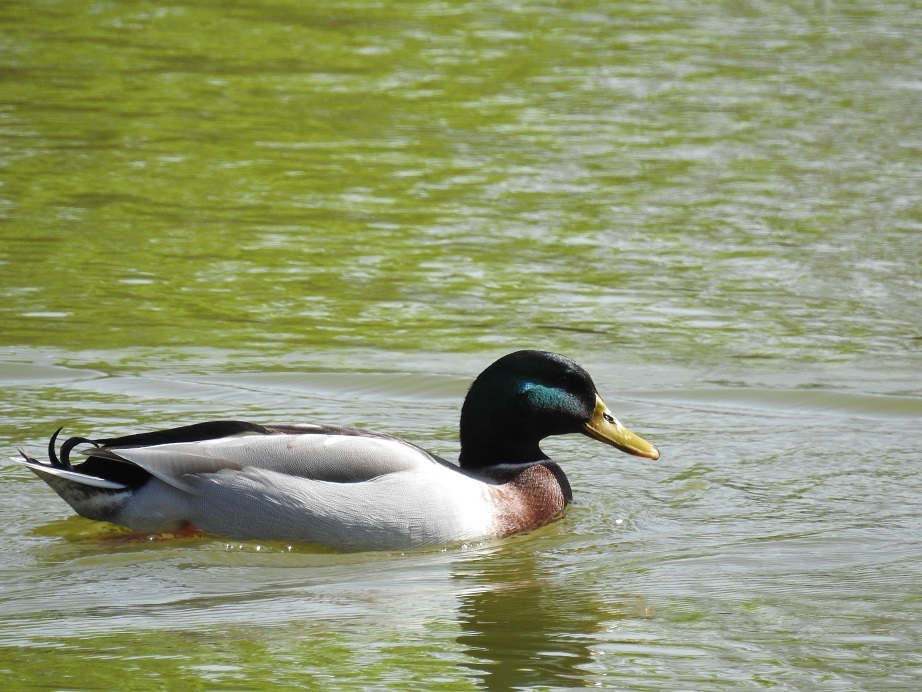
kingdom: Animalia
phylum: Chordata
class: Aves
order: Anseriformes
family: Anatidae
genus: Anas
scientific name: Anas platyrhynchos
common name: Mallard
